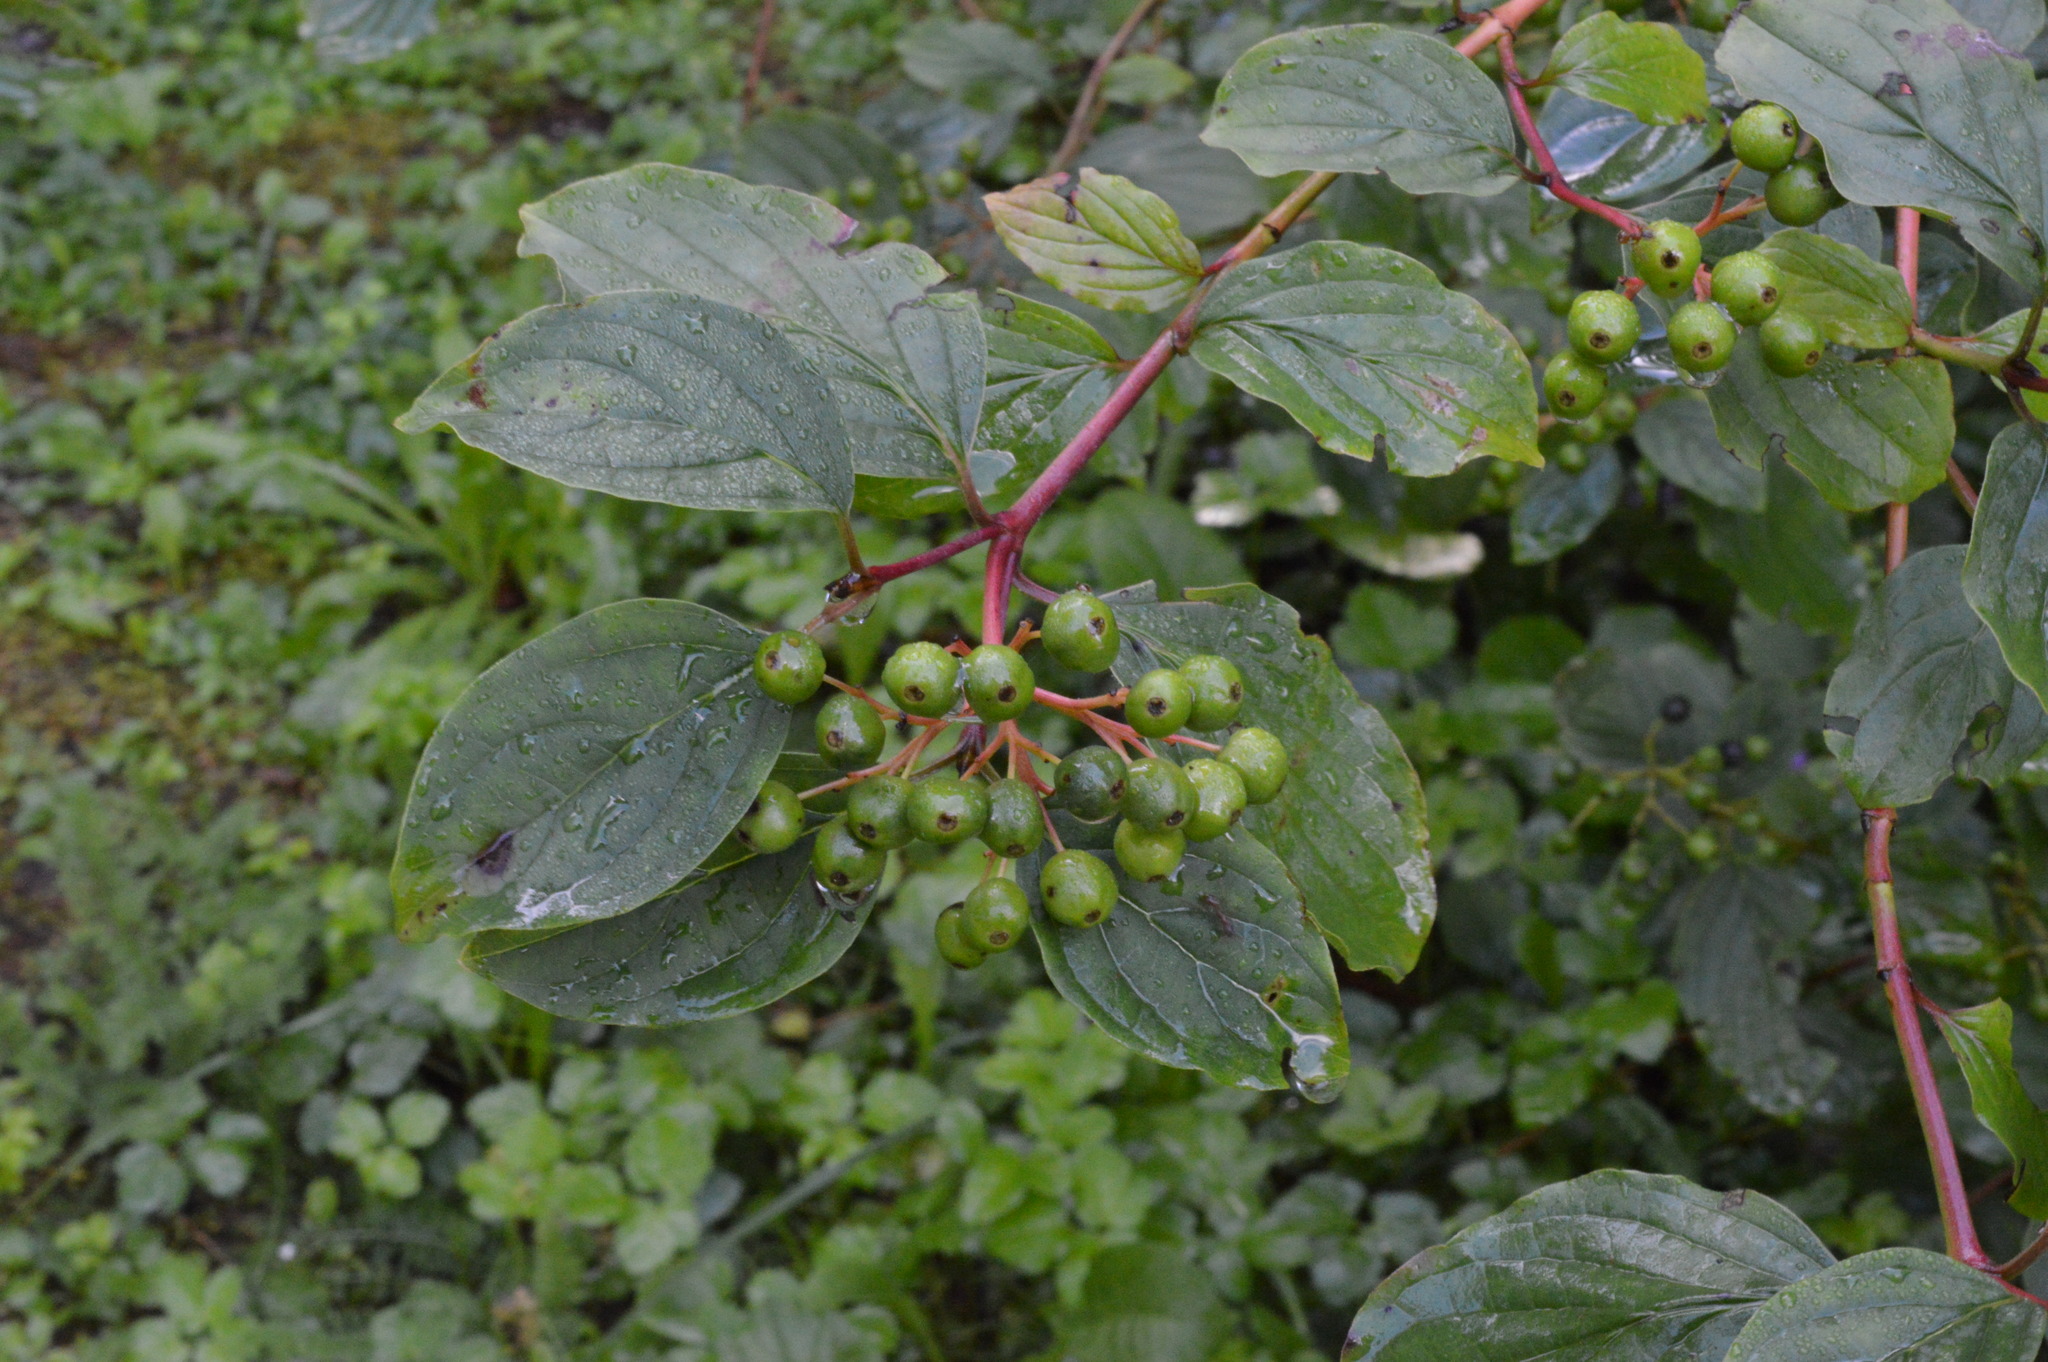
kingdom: Plantae
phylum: Tracheophyta
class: Magnoliopsida
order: Cornales
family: Cornaceae
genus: Cornus
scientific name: Cornus sanguinea
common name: Dogwood
